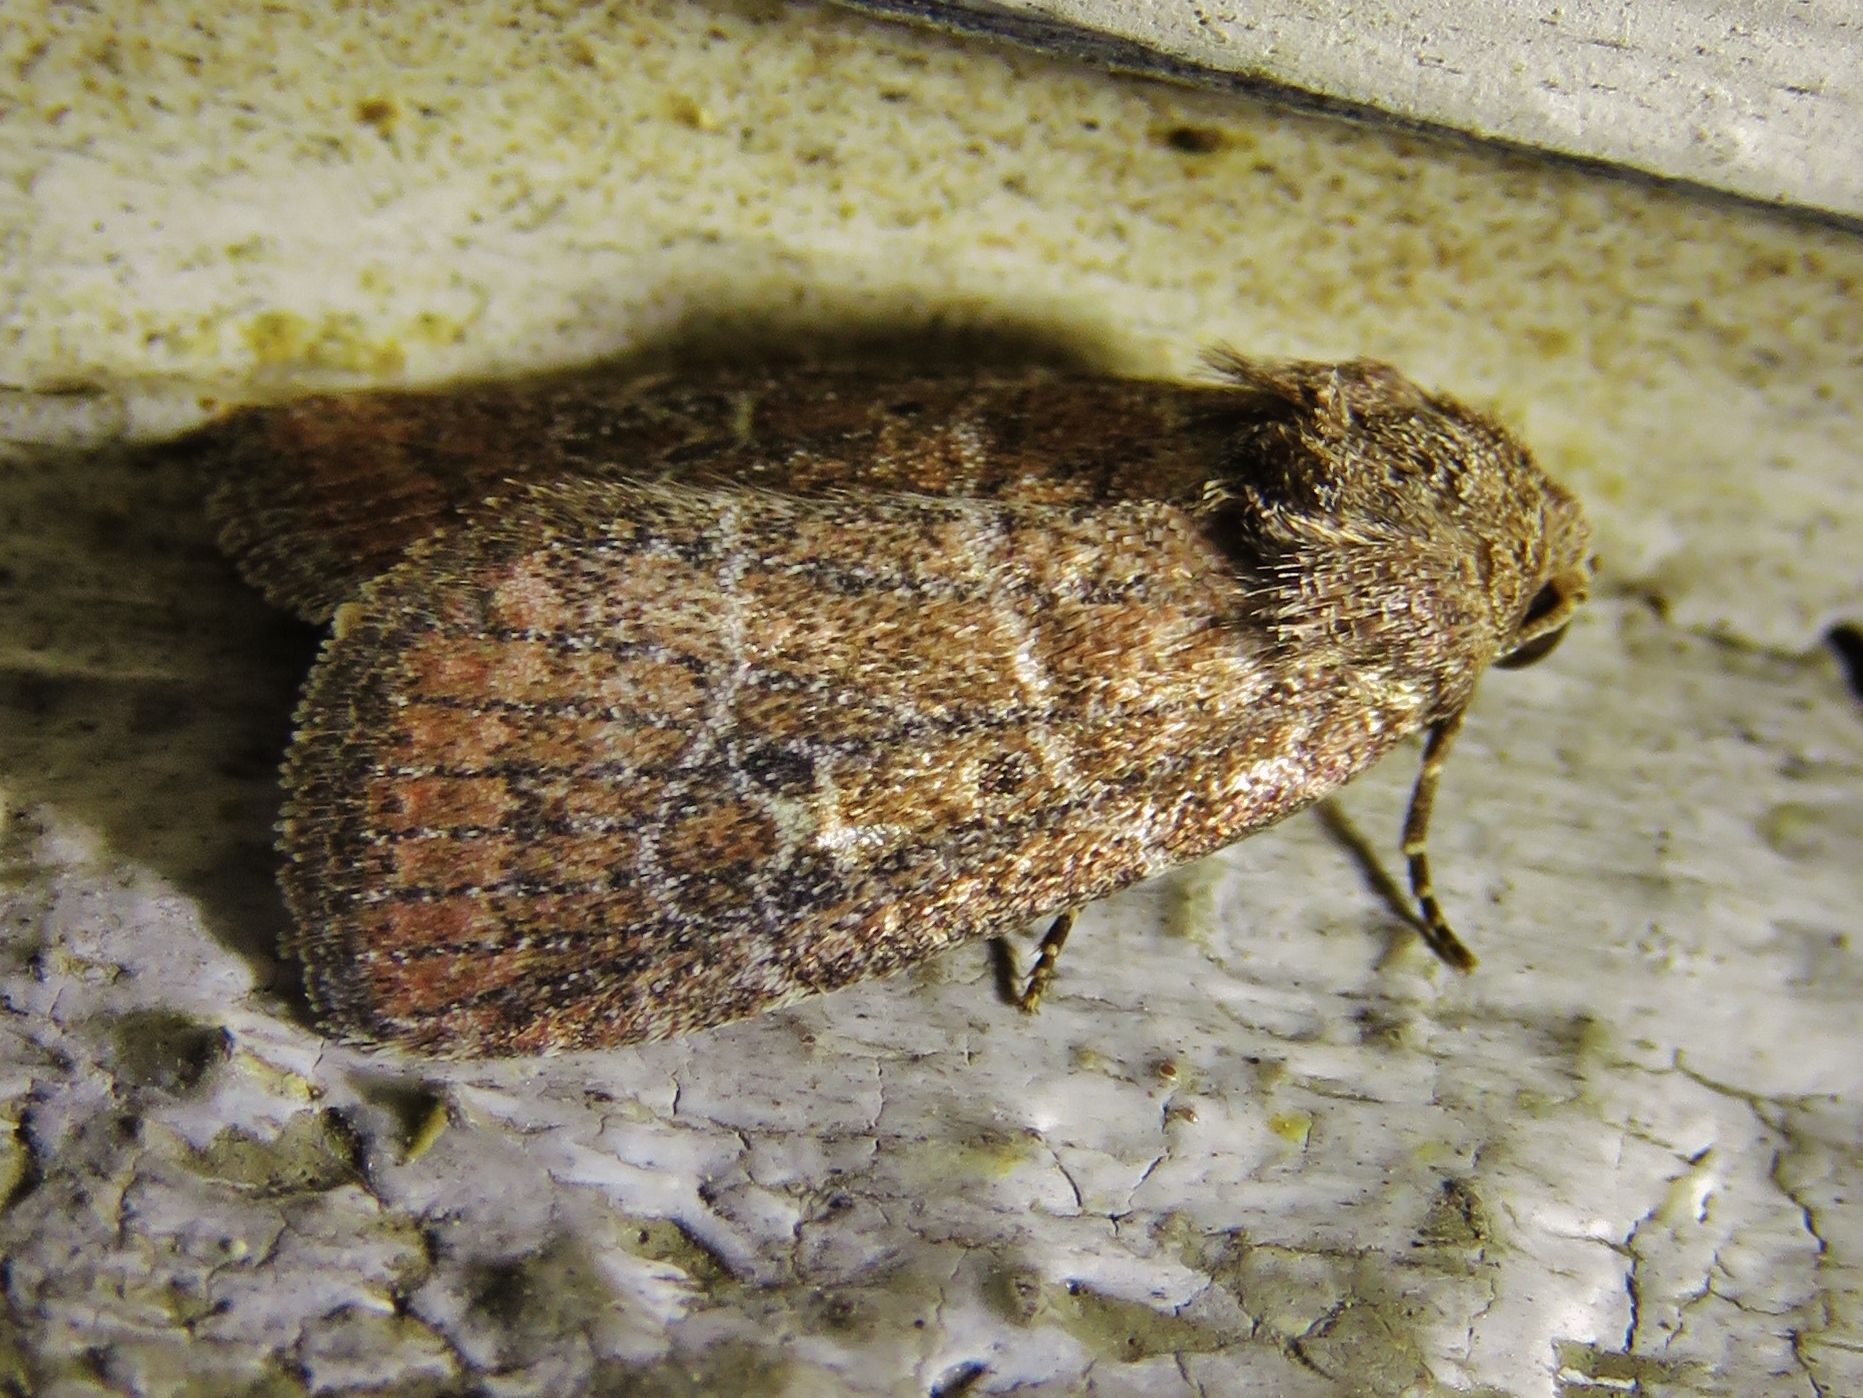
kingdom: Animalia
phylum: Arthropoda
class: Insecta
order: Lepidoptera
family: Noctuidae
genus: Elaphria
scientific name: Elaphria grata
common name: Grateful midget moth
